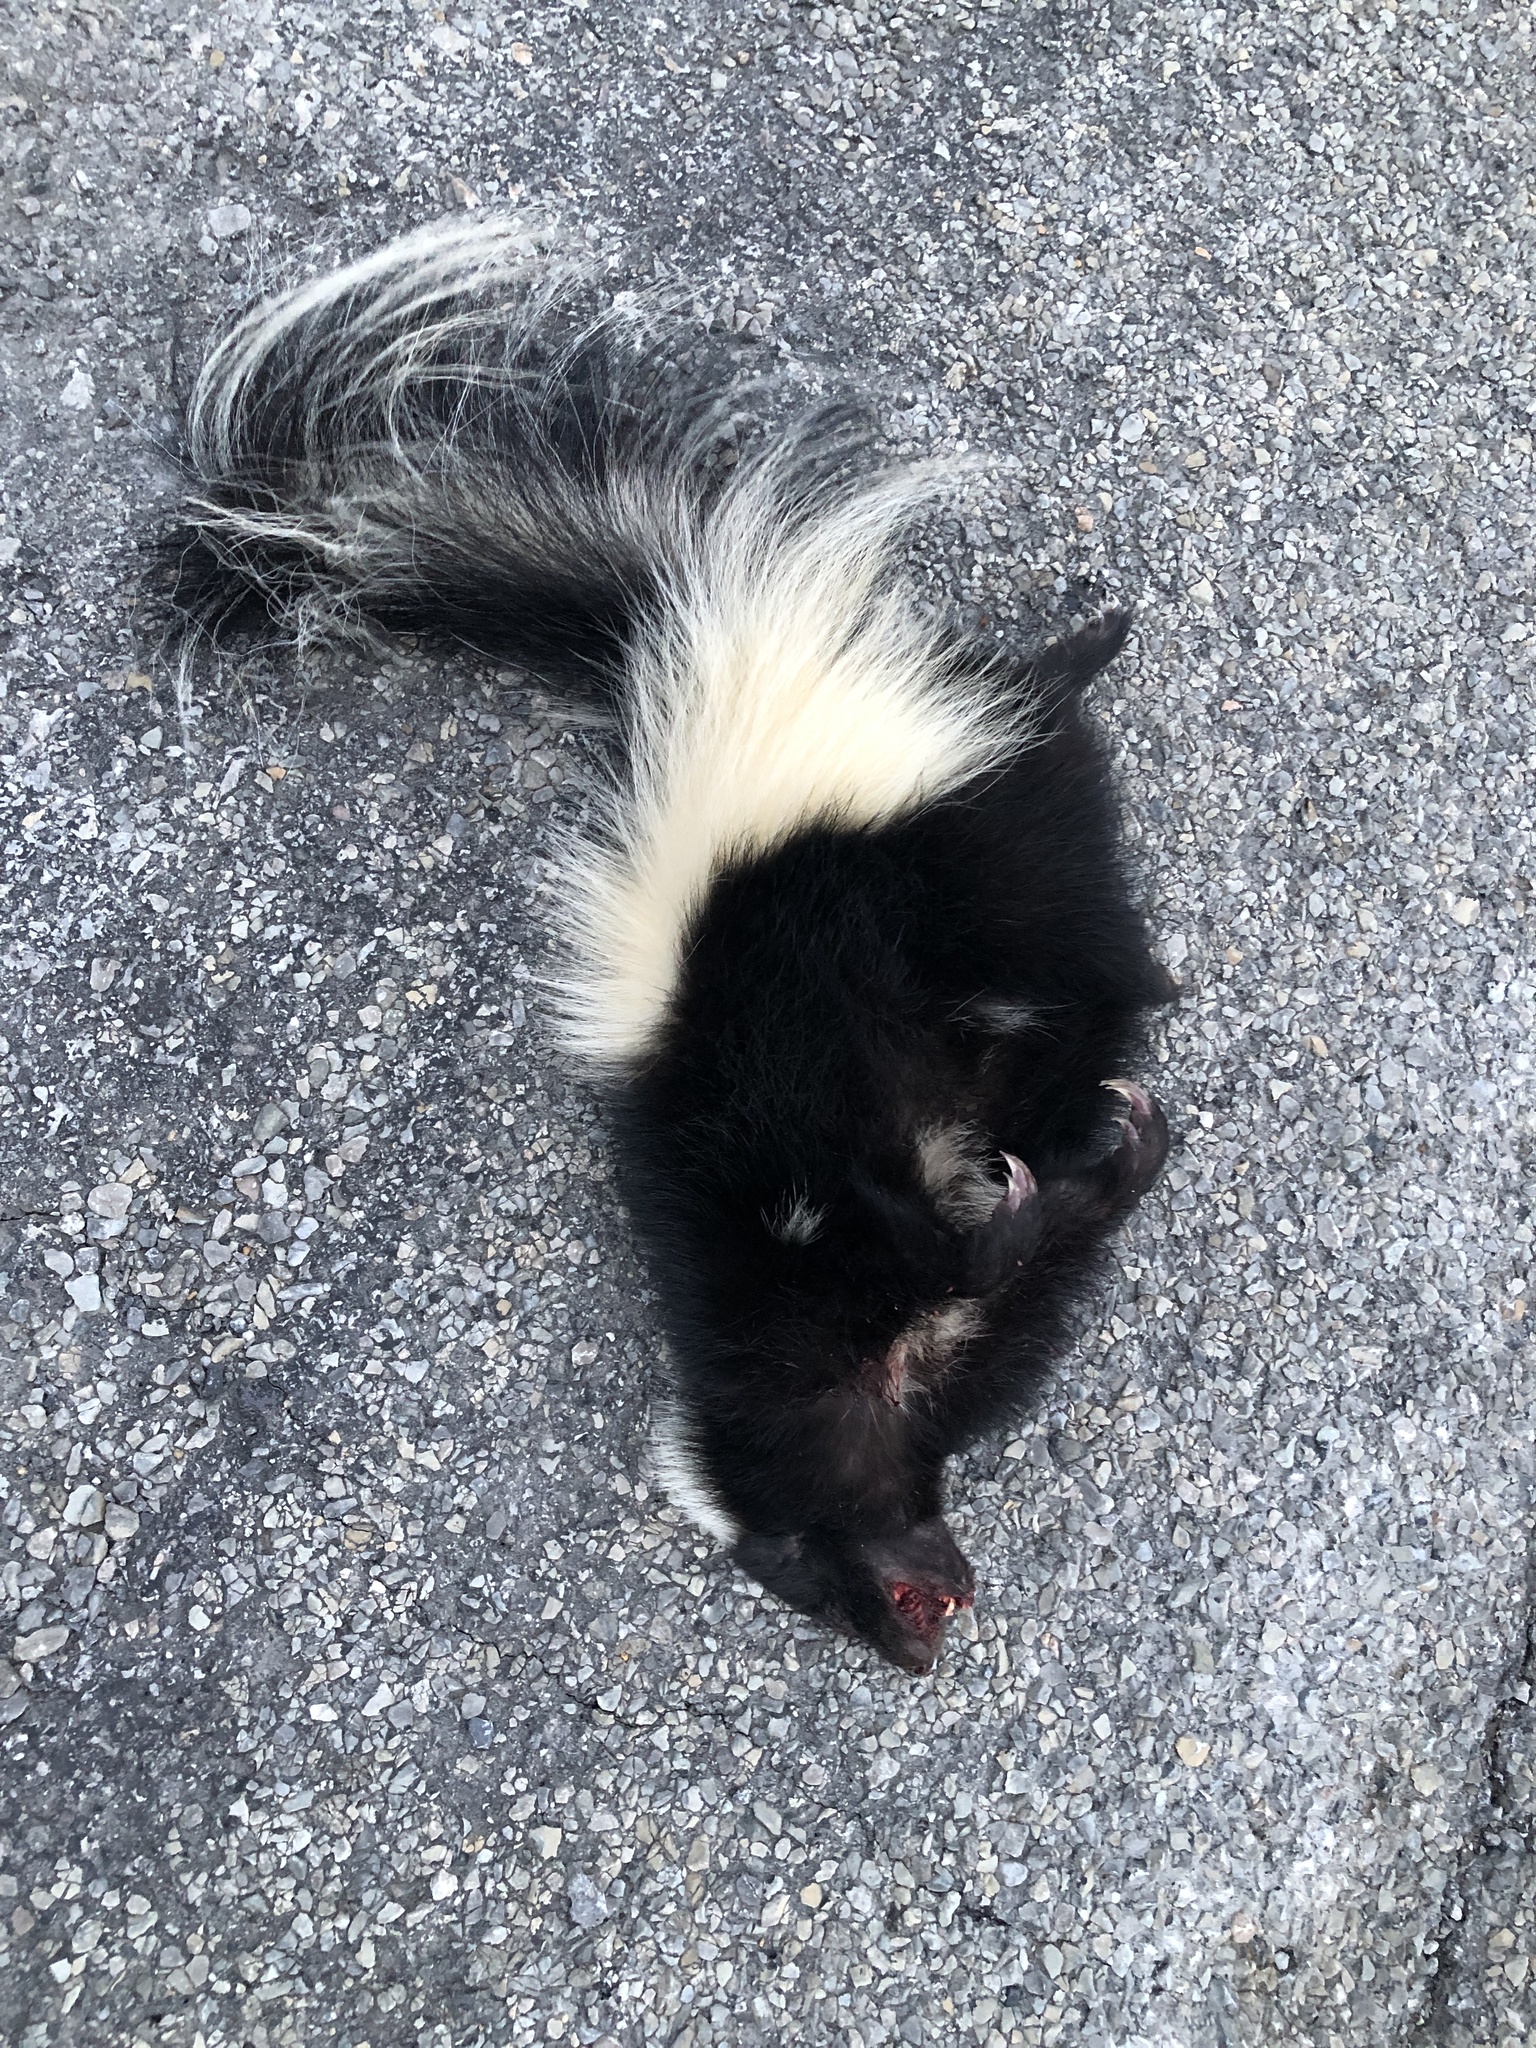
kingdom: Animalia
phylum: Chordata
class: Mammalia
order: Carnivora
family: Mephitidae
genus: Mephitis
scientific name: Mephitis mephitis
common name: Striped skunk
